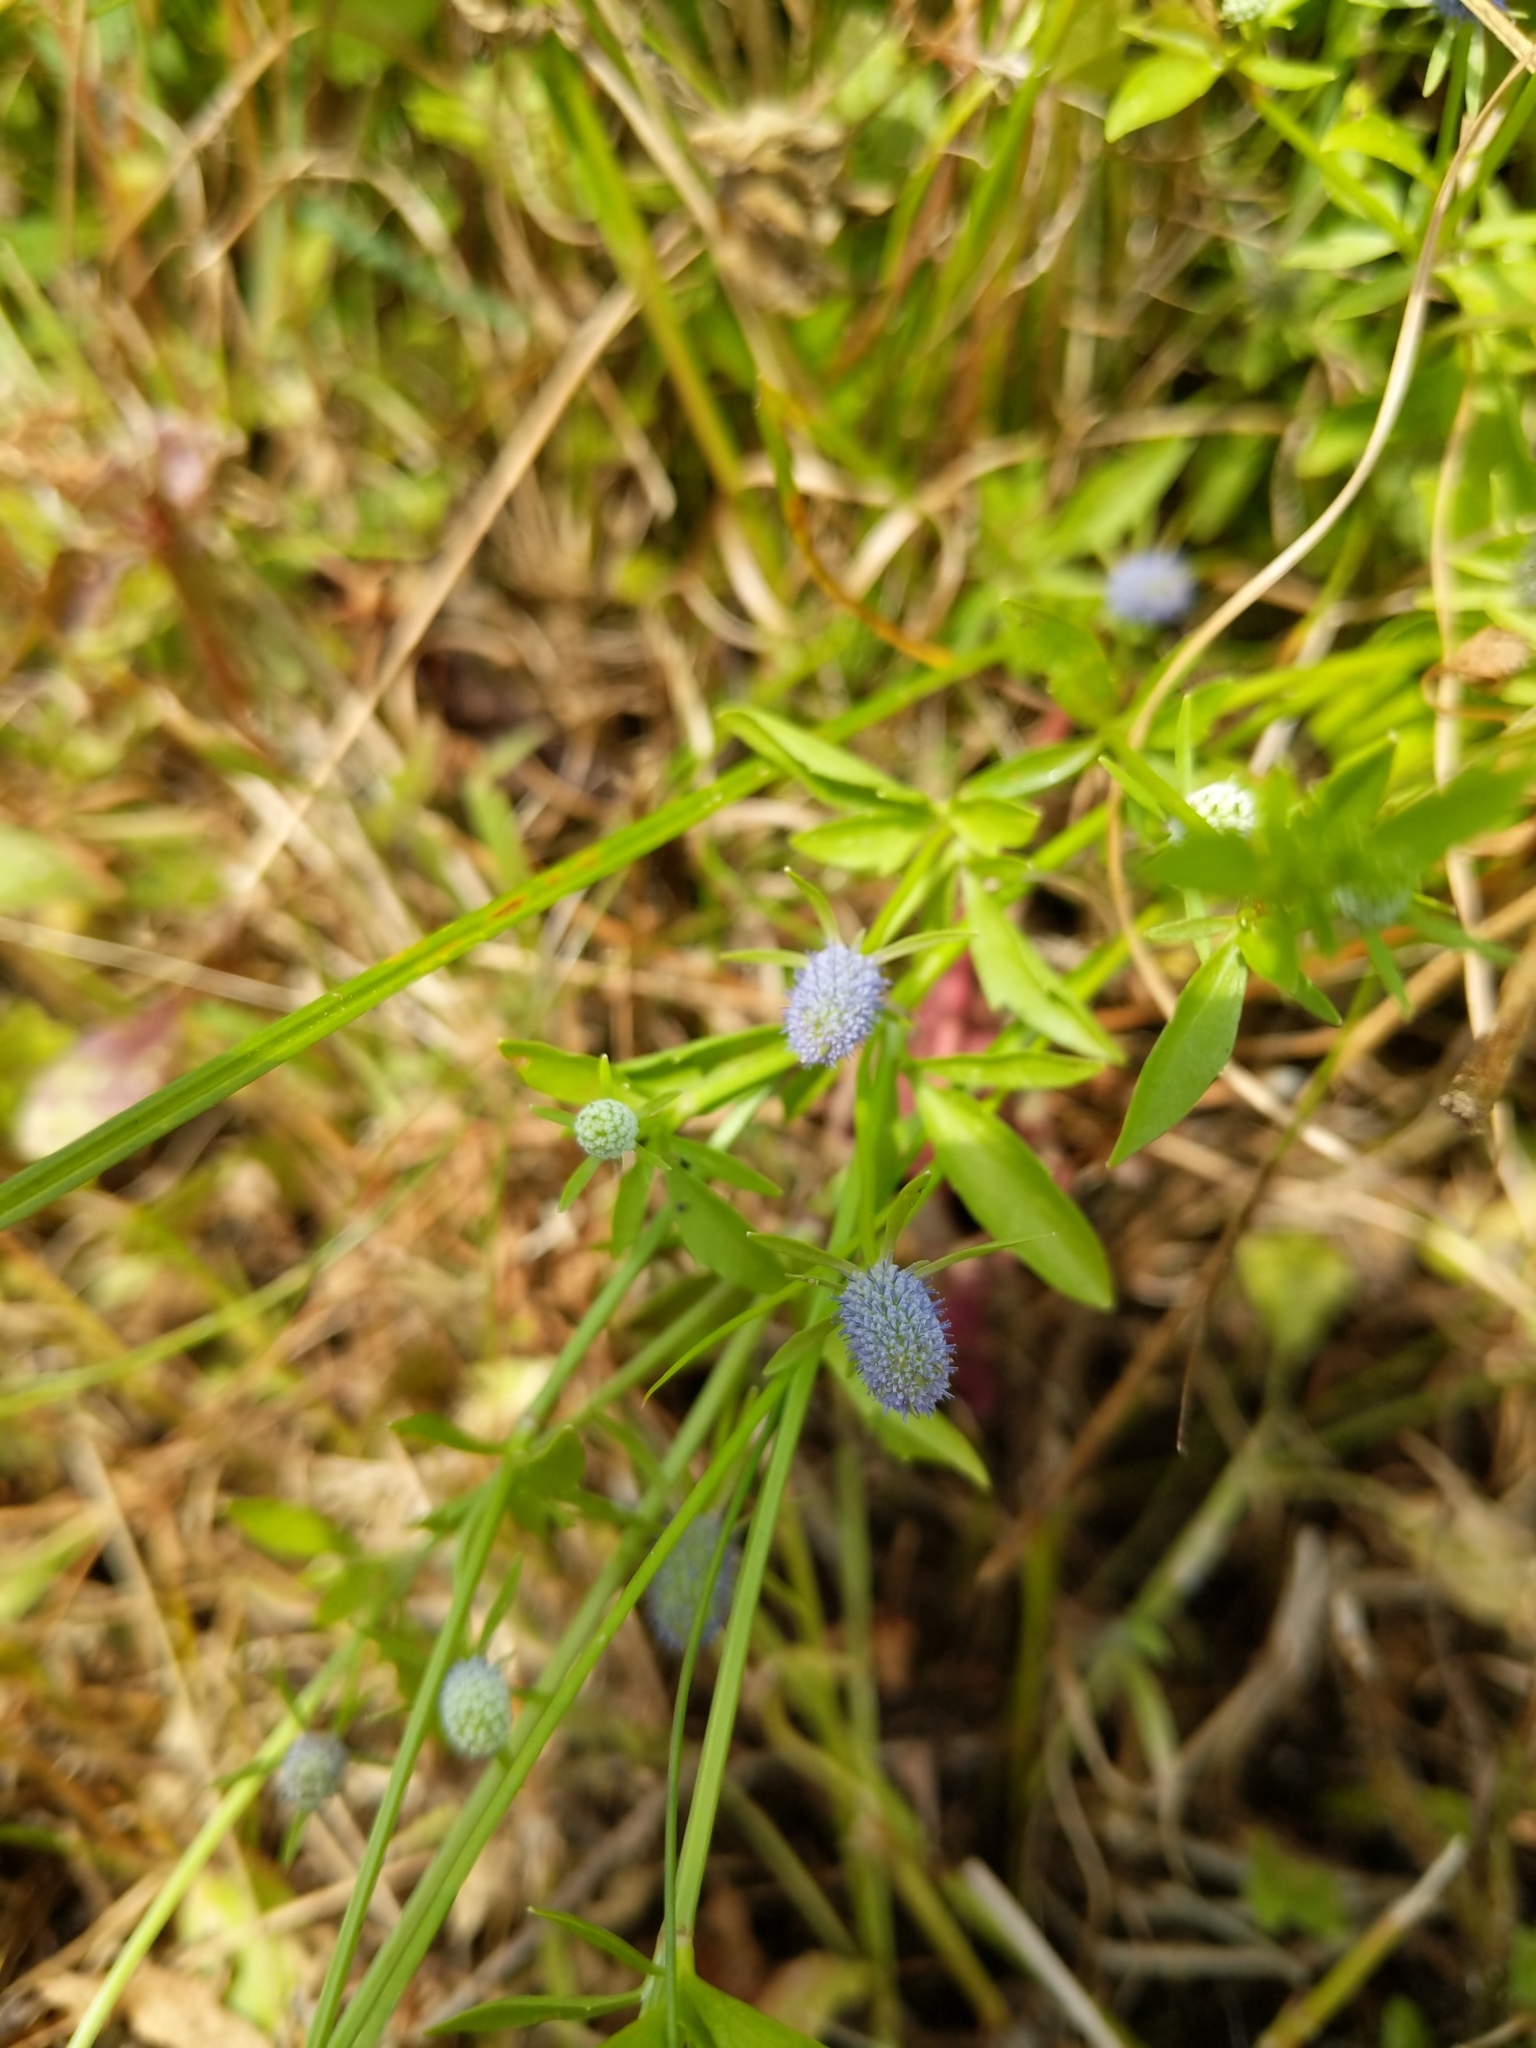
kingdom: Plantae
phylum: Tracheophyta
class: Magnoliopsida
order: Apiales
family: Apiaceae
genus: Eryngium
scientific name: Eryngium prostratum
